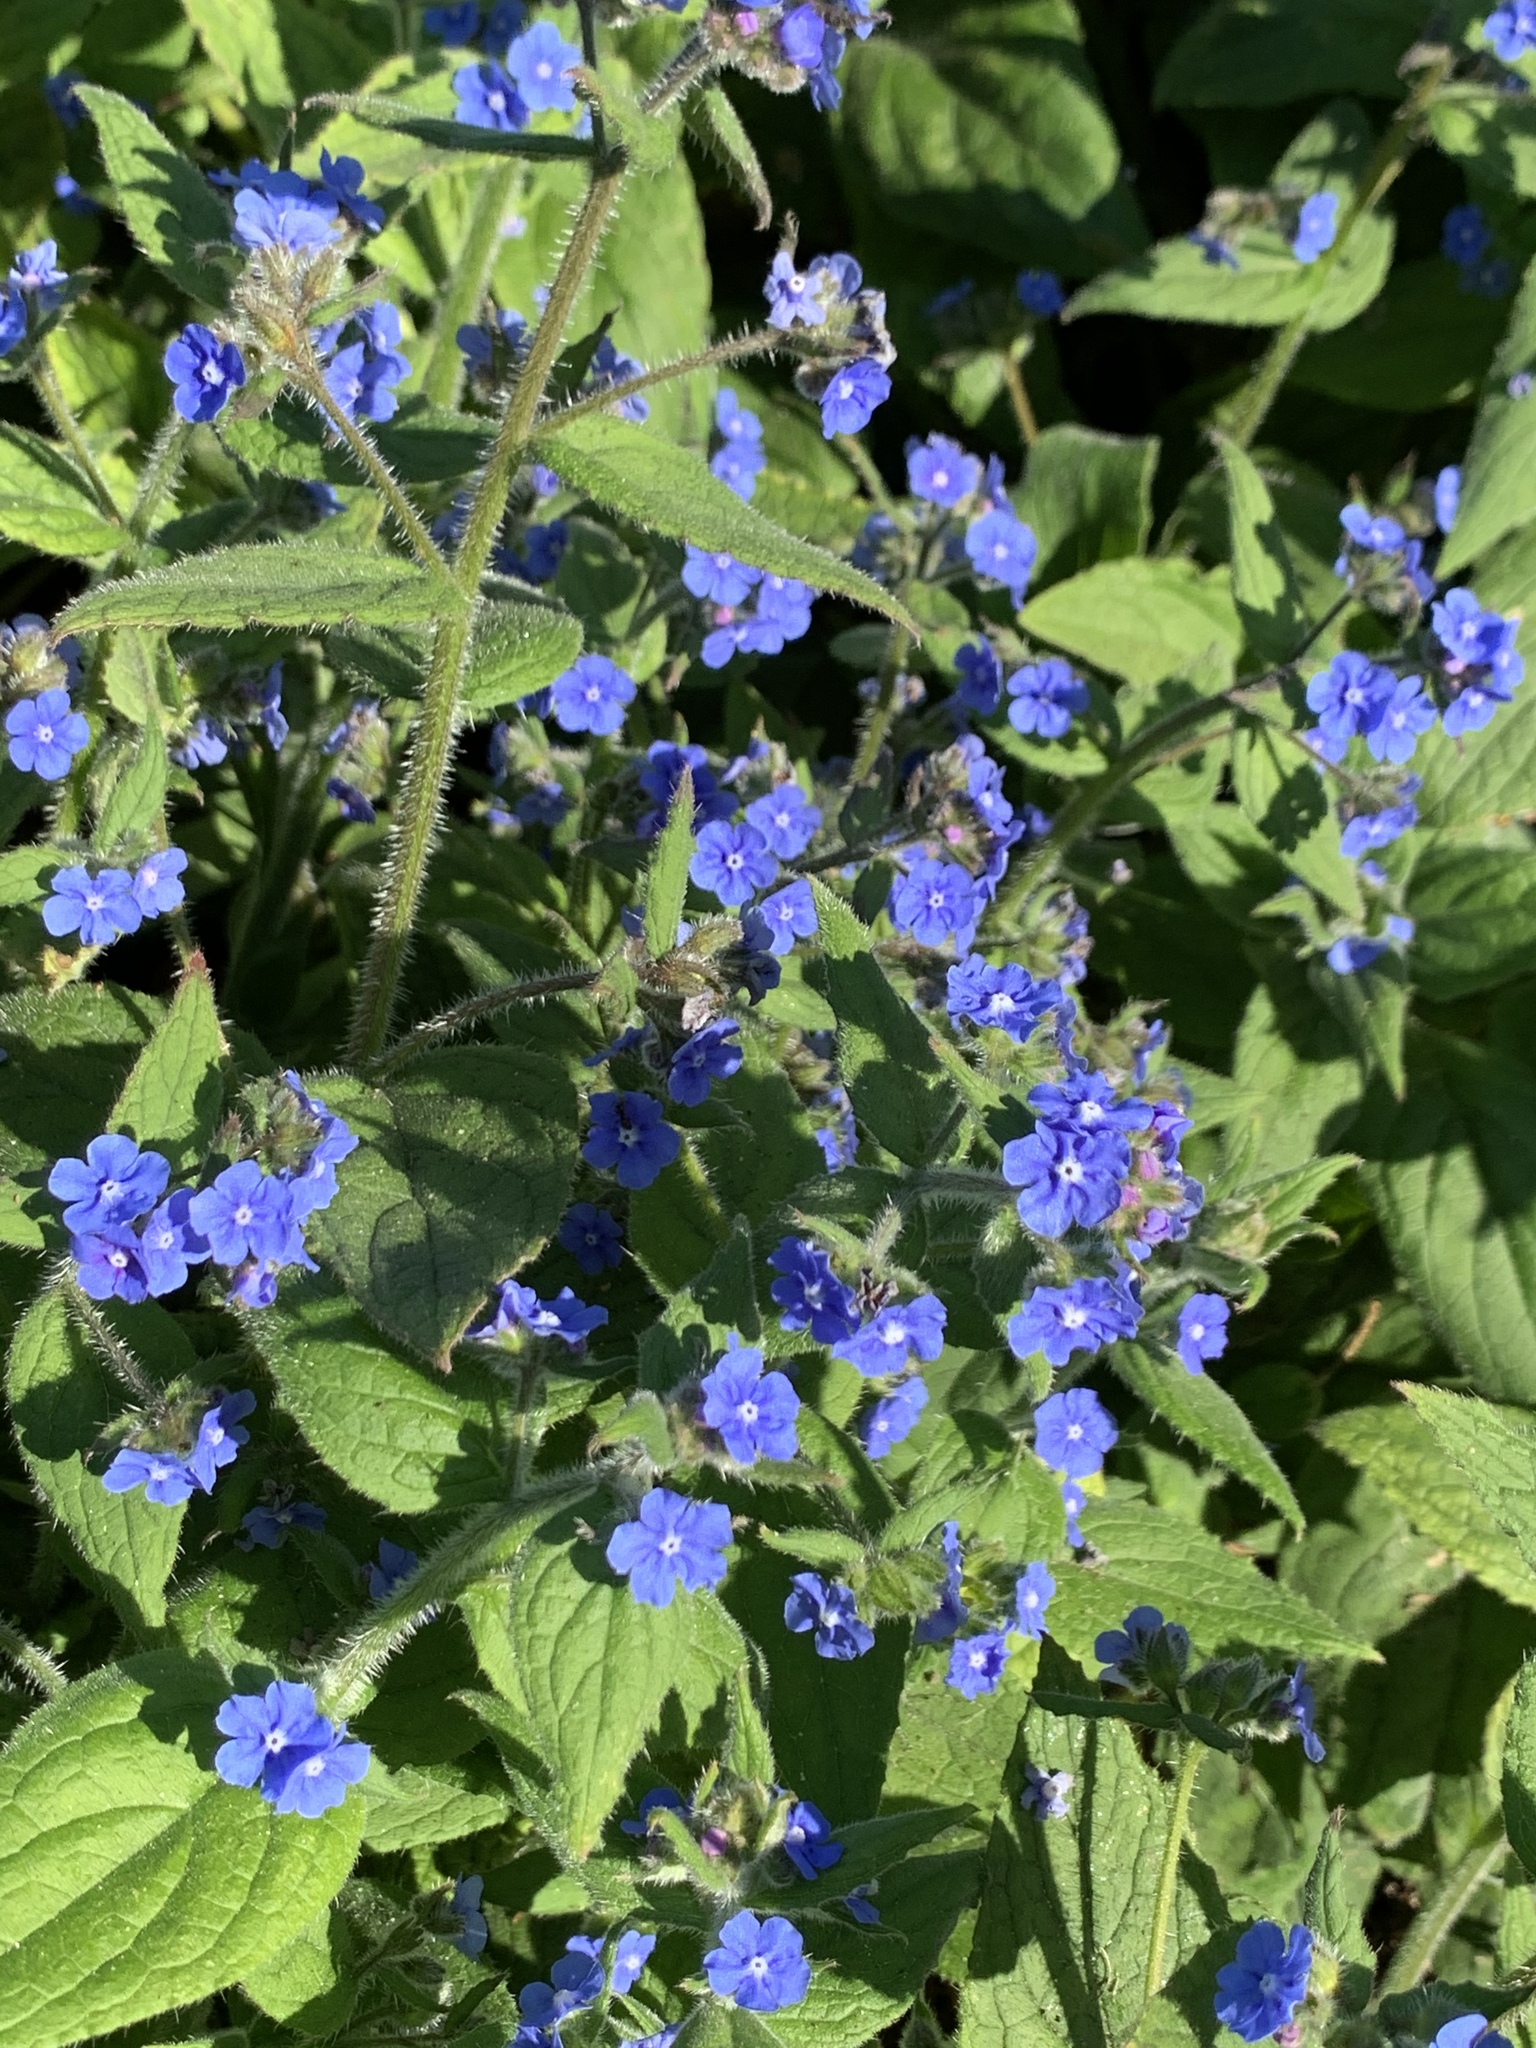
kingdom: Plantae
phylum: Tracheophyta
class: Magnoliopsida
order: Boraginales
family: Boraginaceae
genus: Pentaglottis
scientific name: Pentaglottis sempervirens
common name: Green alkanet
